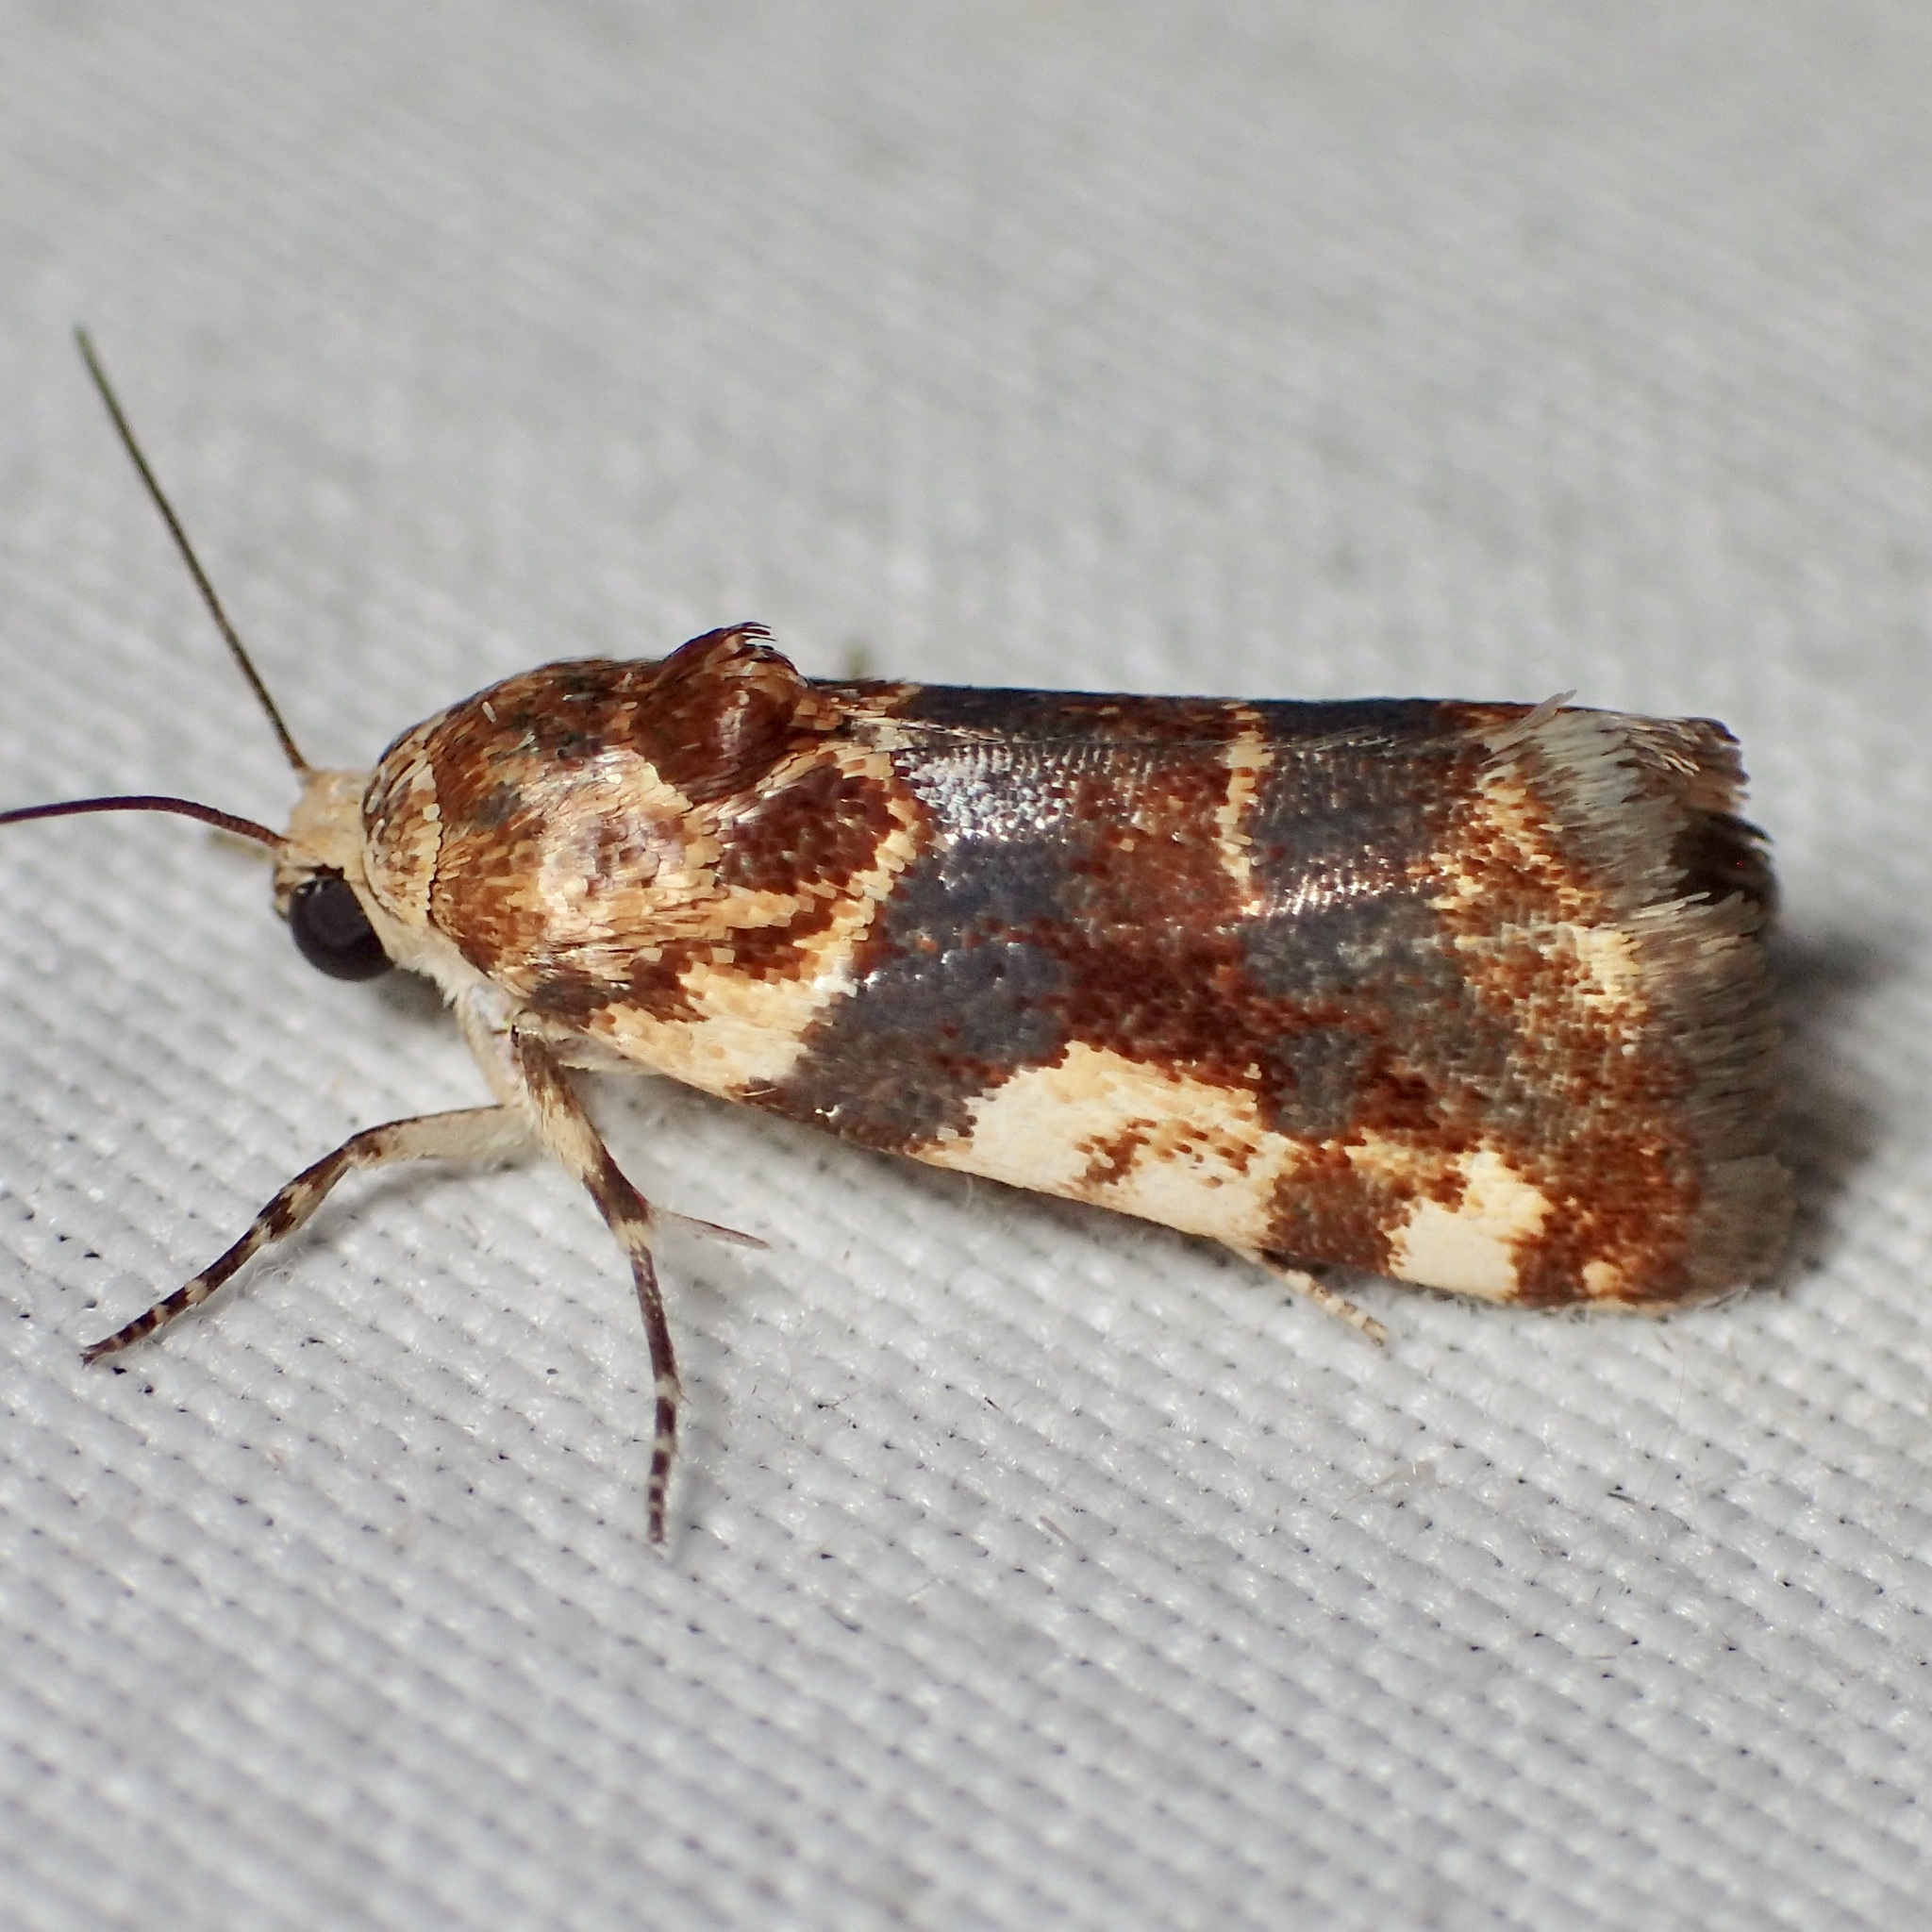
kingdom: Animalia
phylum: Arthropoda
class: Insecta
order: Lepidoptera
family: Noctuidae
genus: Acontia
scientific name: Acontia obatra
